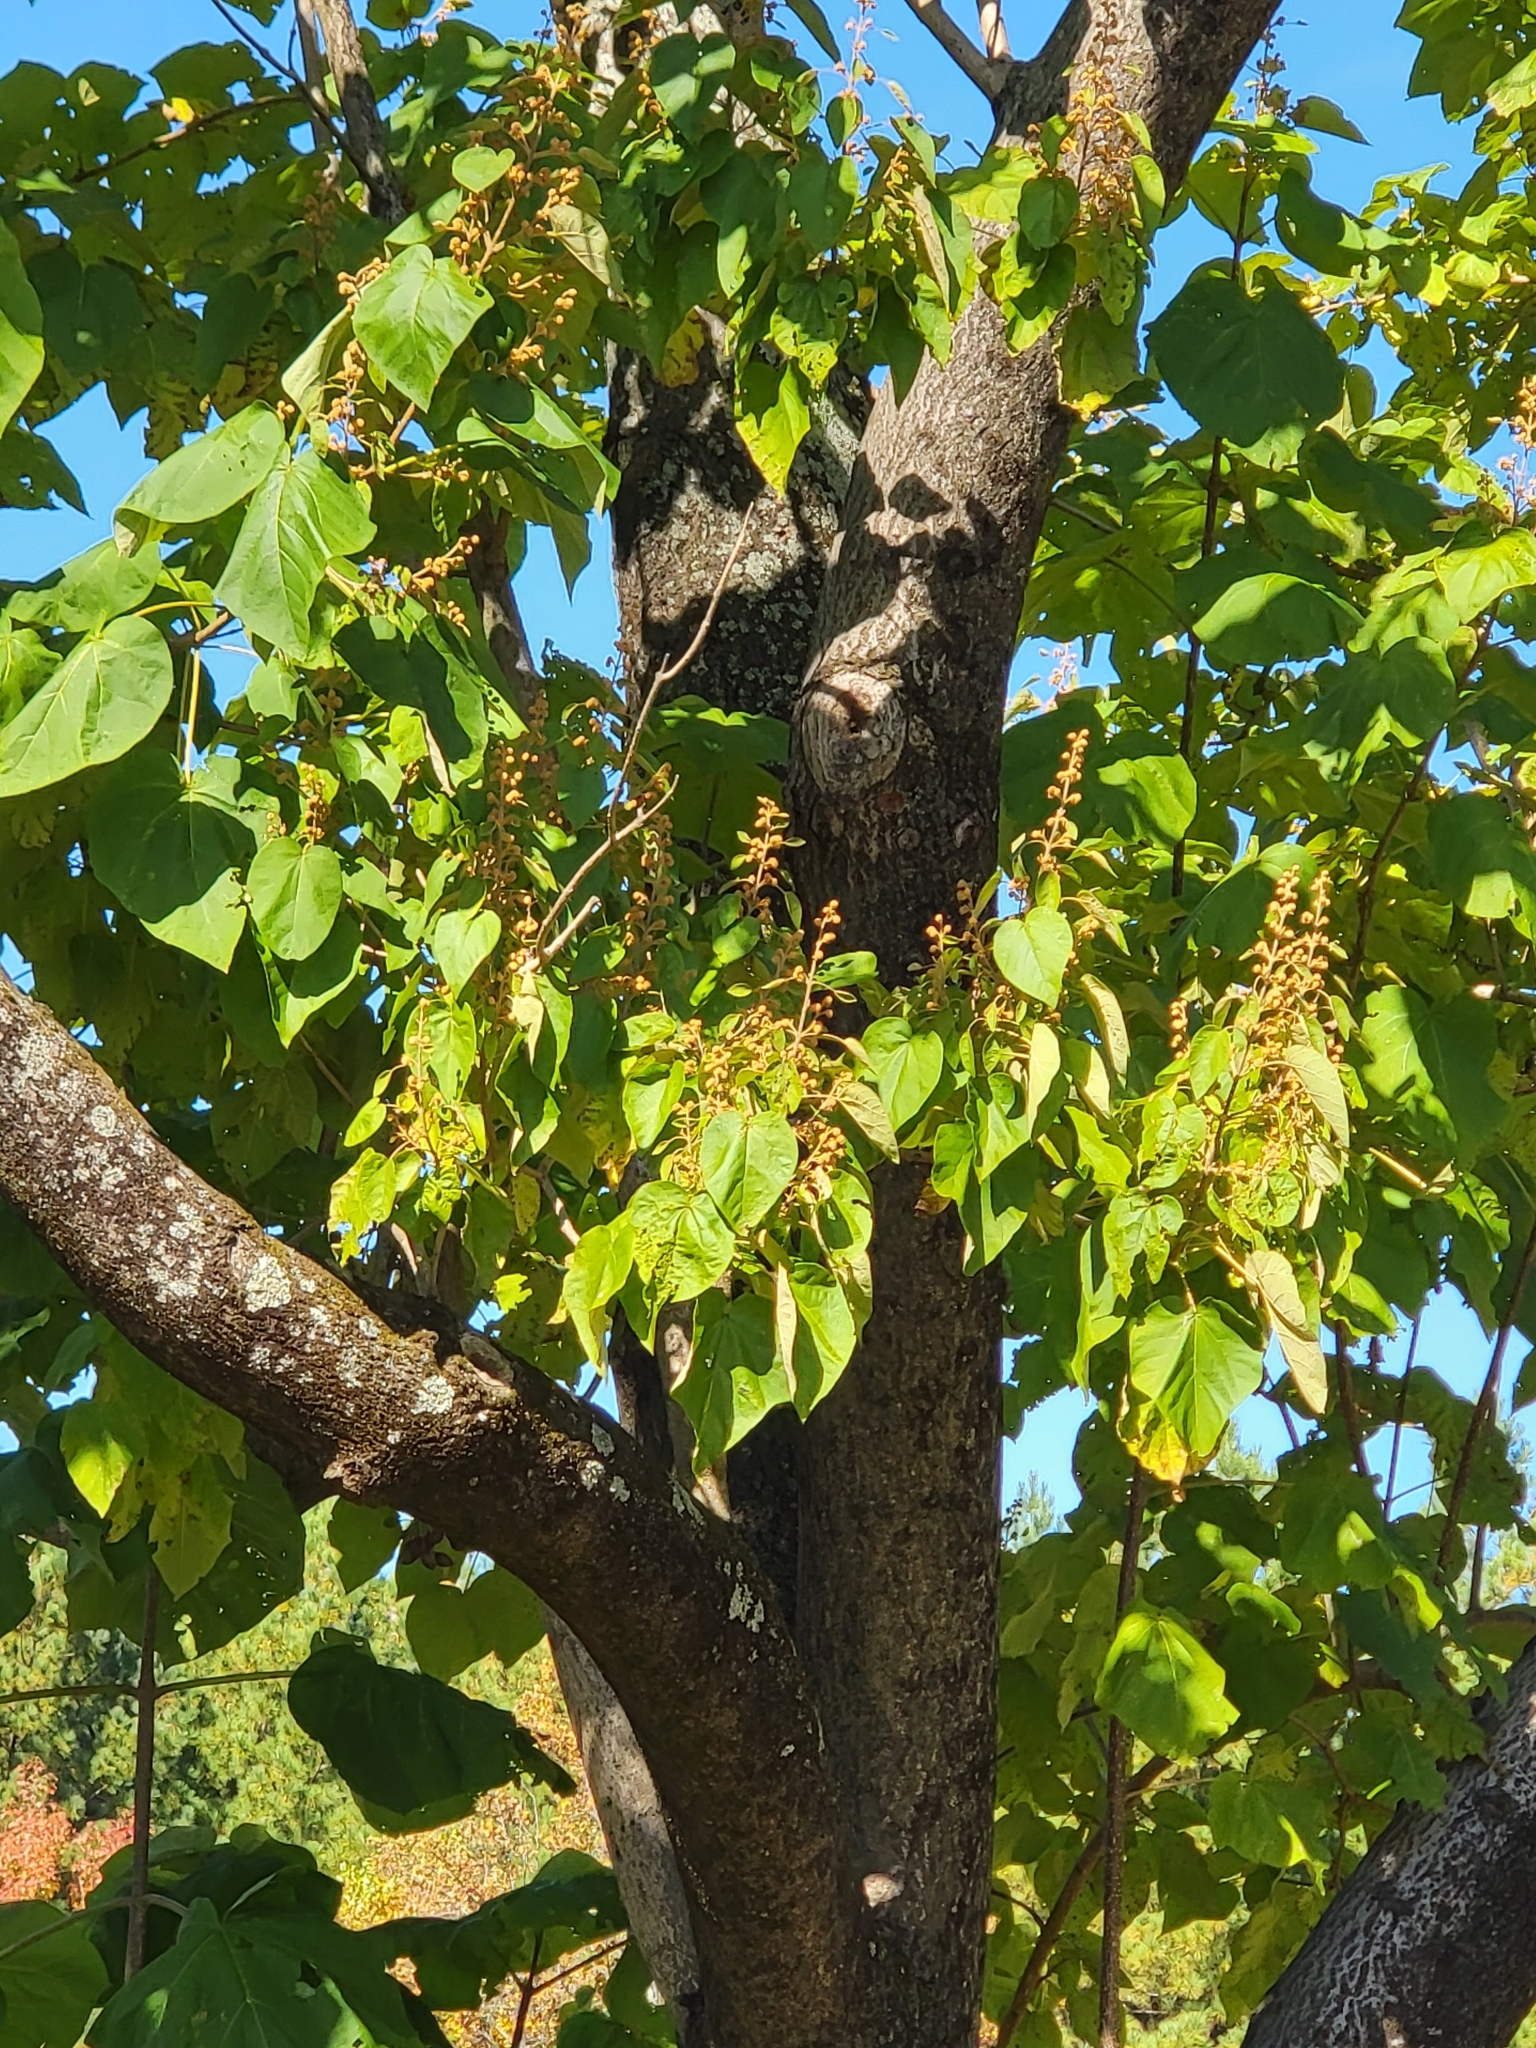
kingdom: Plantae
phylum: Tracheophyta
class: Magnoliopsida
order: Lamiales
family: Paulowniaceae
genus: Paulownia
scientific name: Paulownia tomentosa
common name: Foxglove-tree
